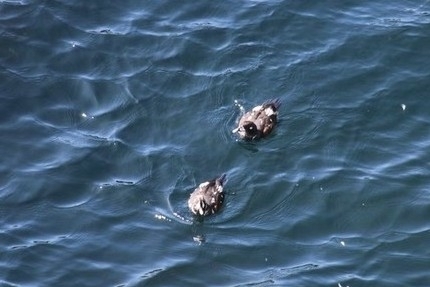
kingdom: Animalia
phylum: Chordata
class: Aves
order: Anseriformes
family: Anatidae
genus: Histrionicus
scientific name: Histrionicus histrionicus
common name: Harlequin duck
